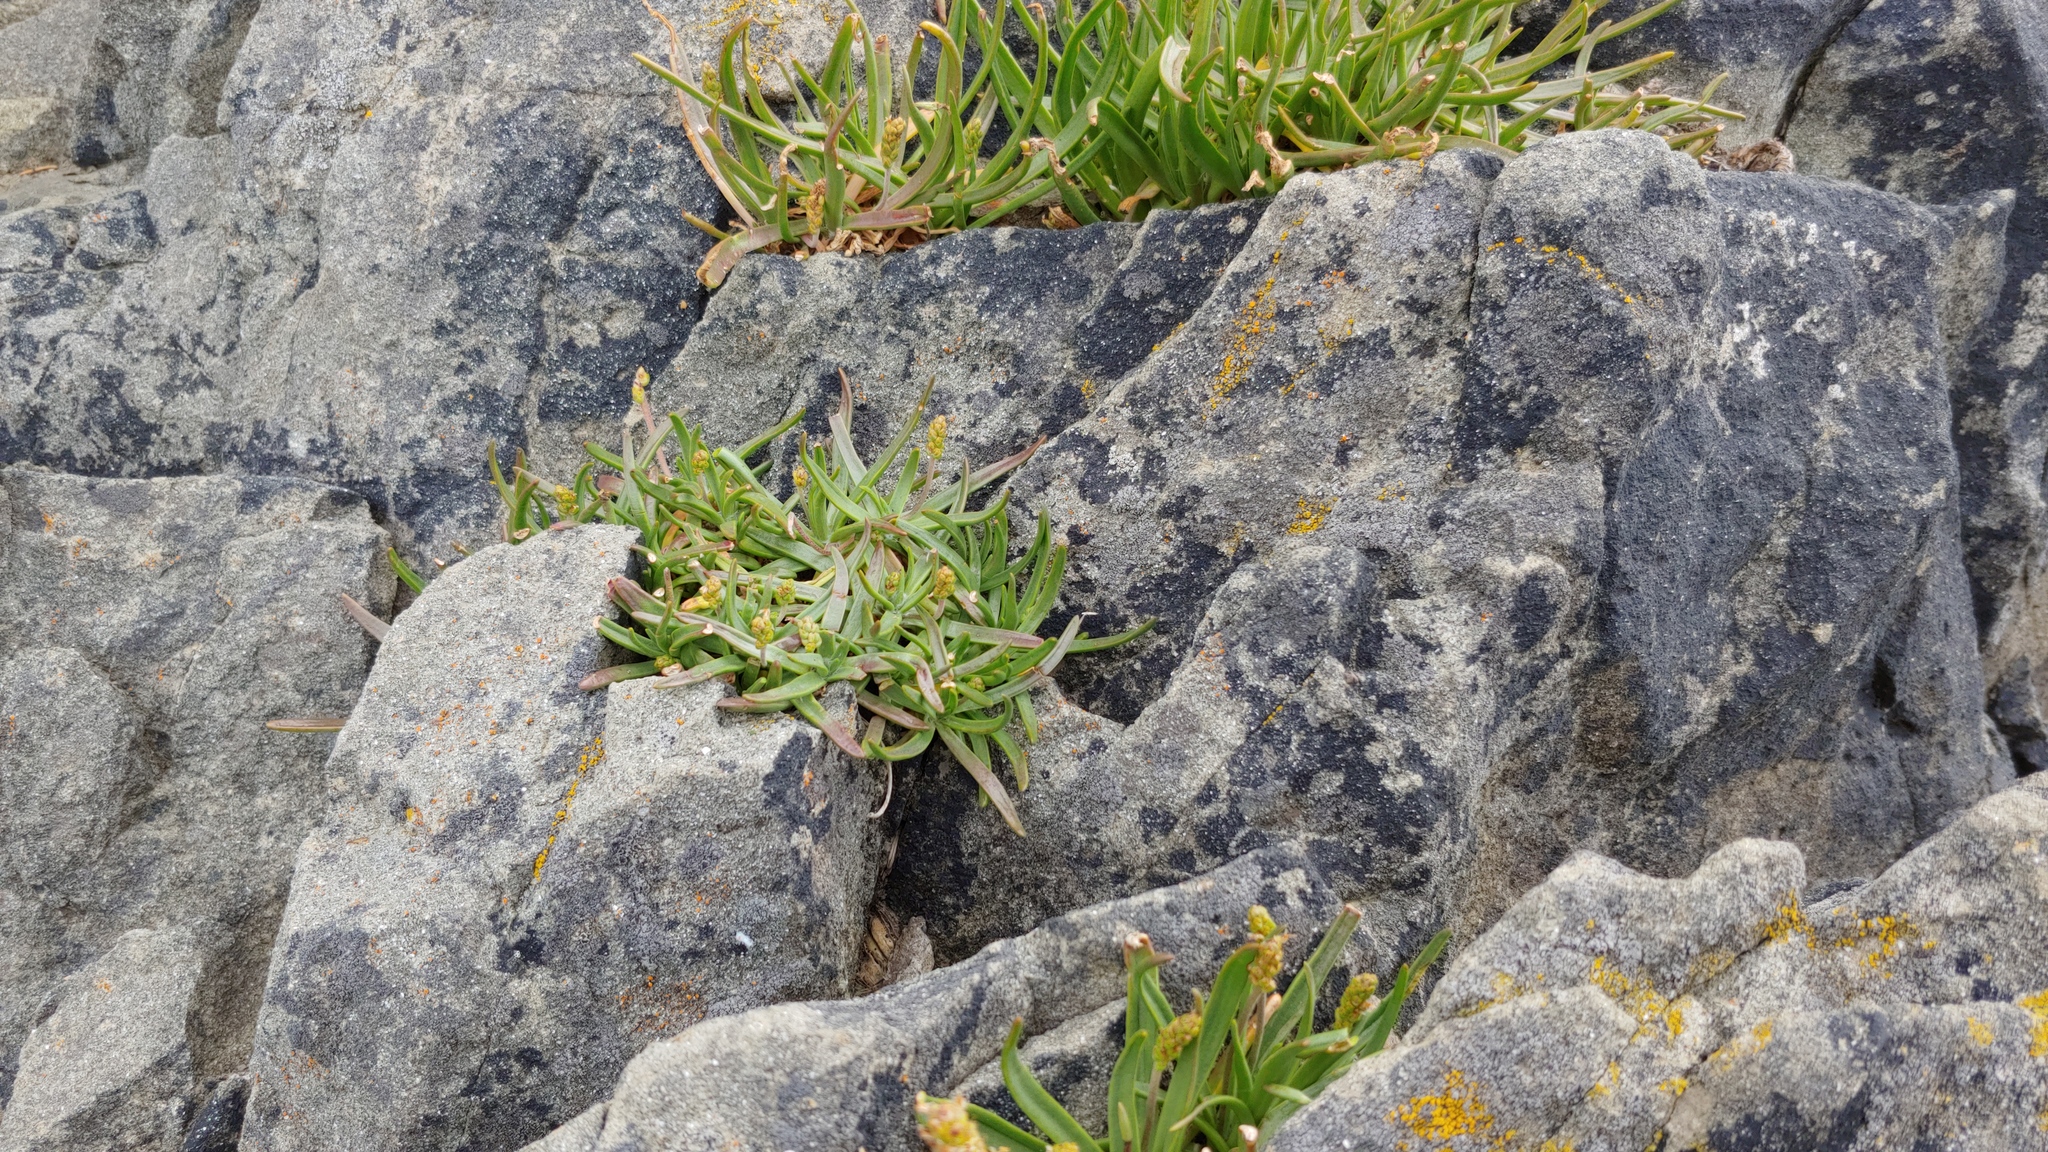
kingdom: Plantae
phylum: Tracheophyta
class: Magnoliopsida
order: Lamiales
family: Plantaginaceae
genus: Plantago
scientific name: Plantago maritima
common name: Sea plantain
